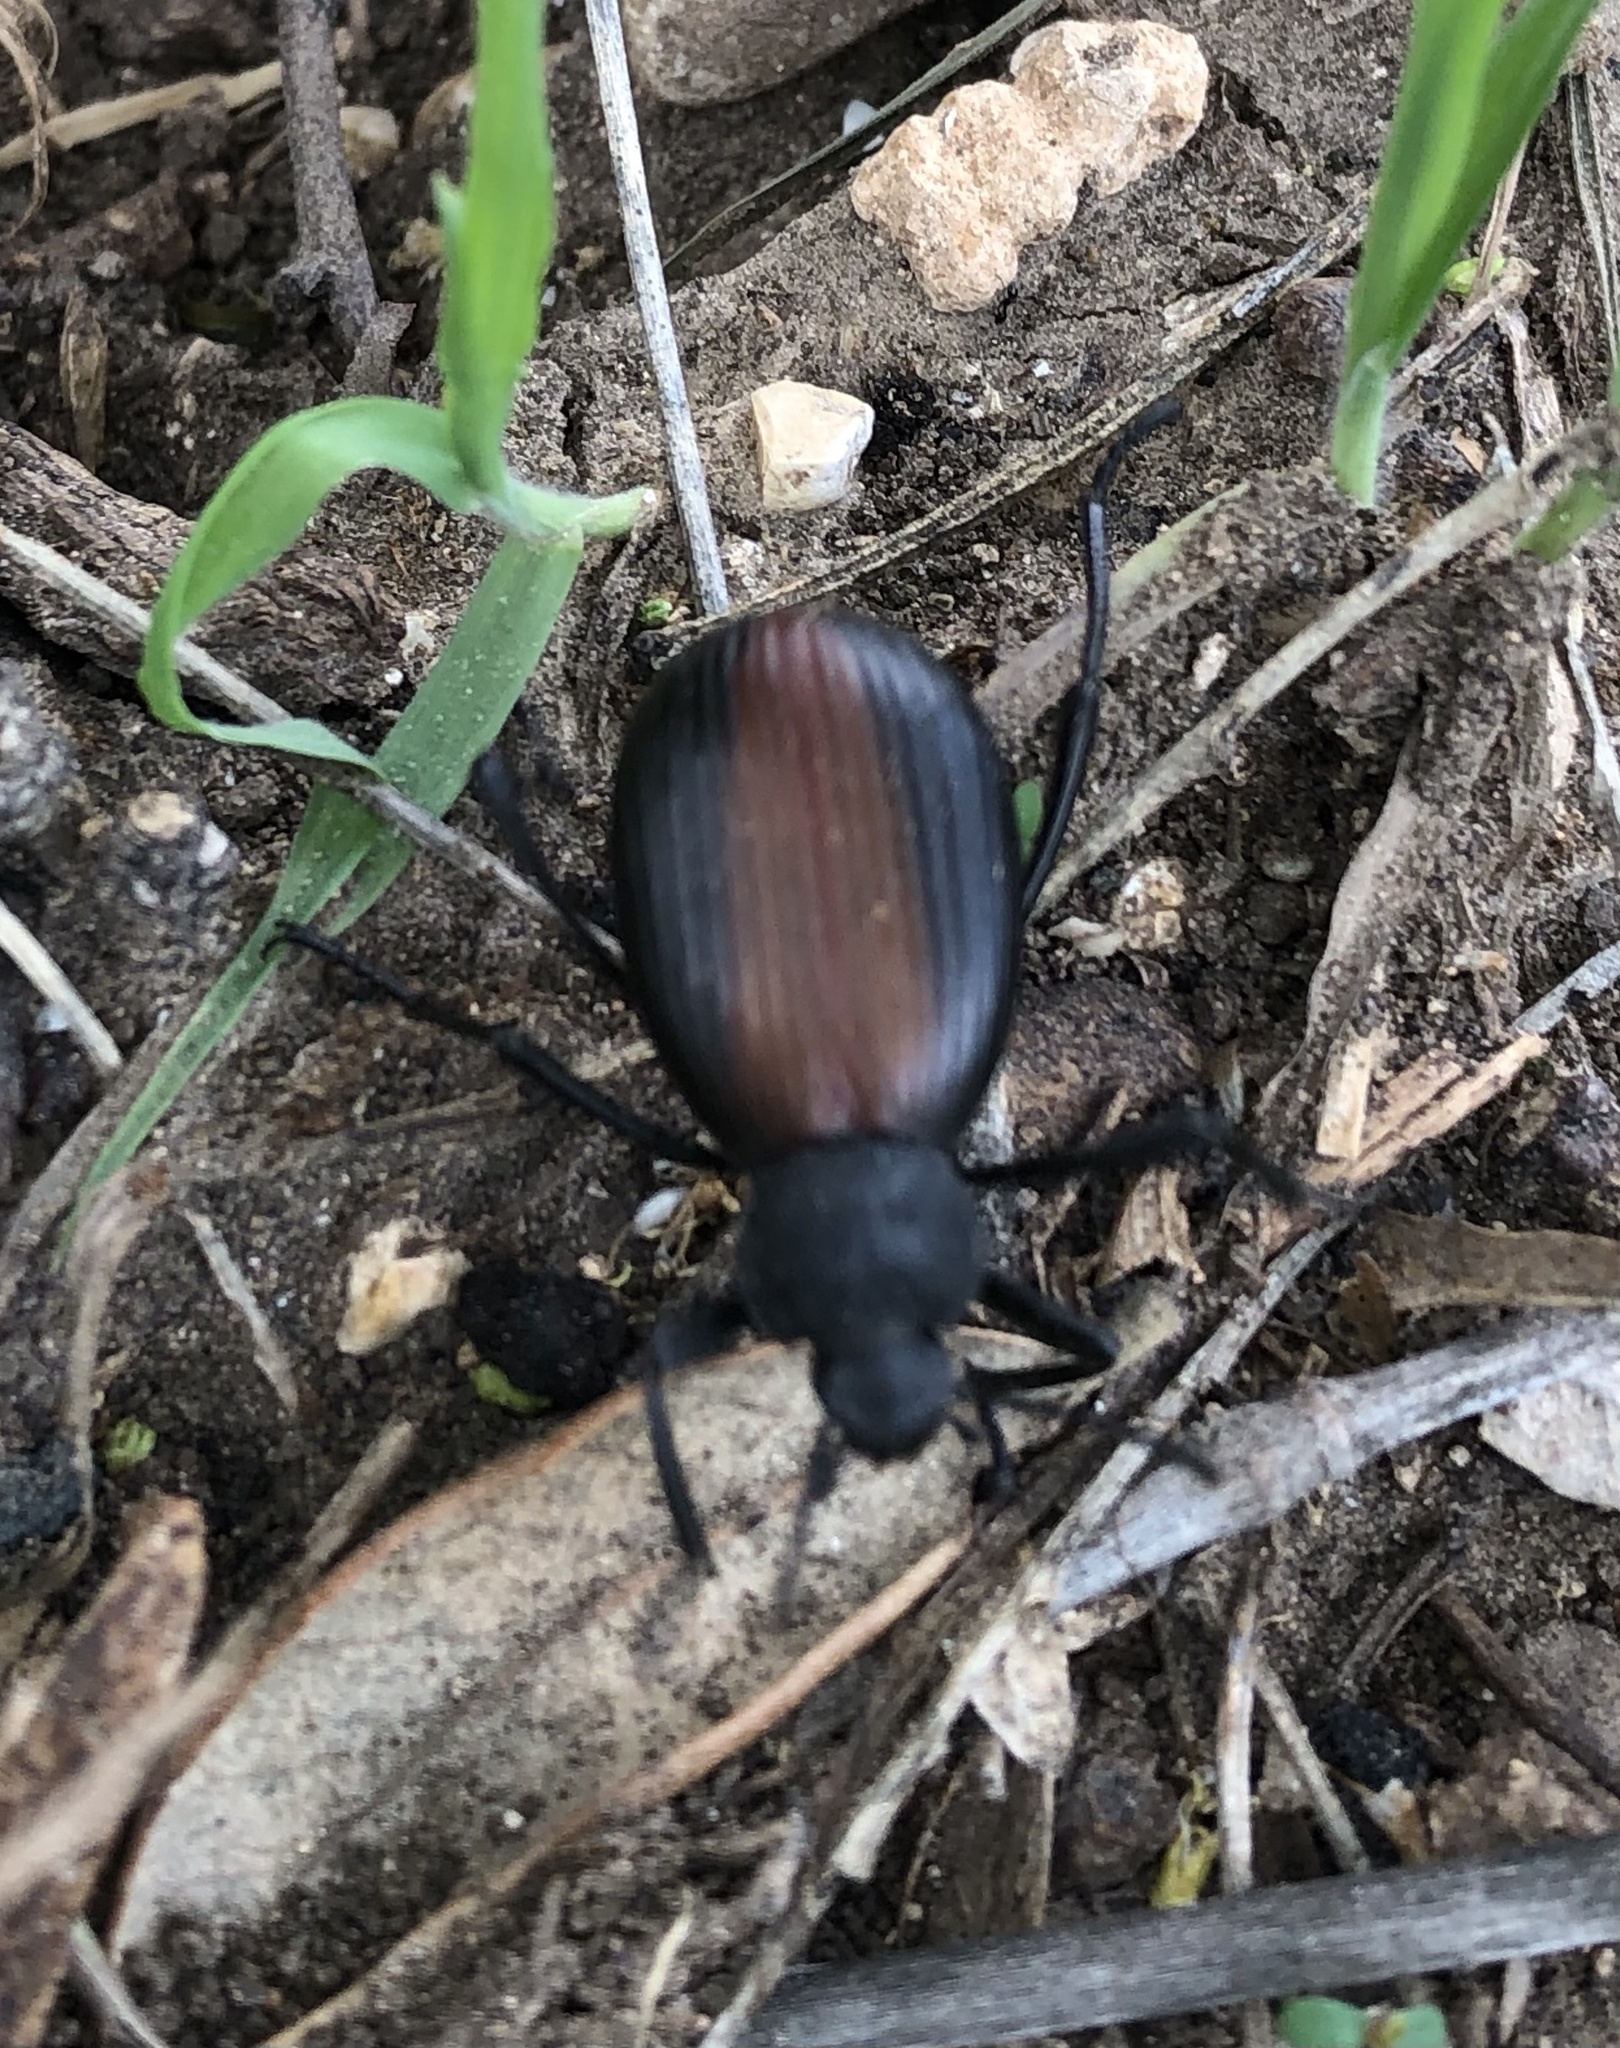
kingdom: Animalia
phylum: Arthropoda
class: Insecta
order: Coleoptera
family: Tenebrionidae
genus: Eleodes
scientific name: Eleodes hispilabris
